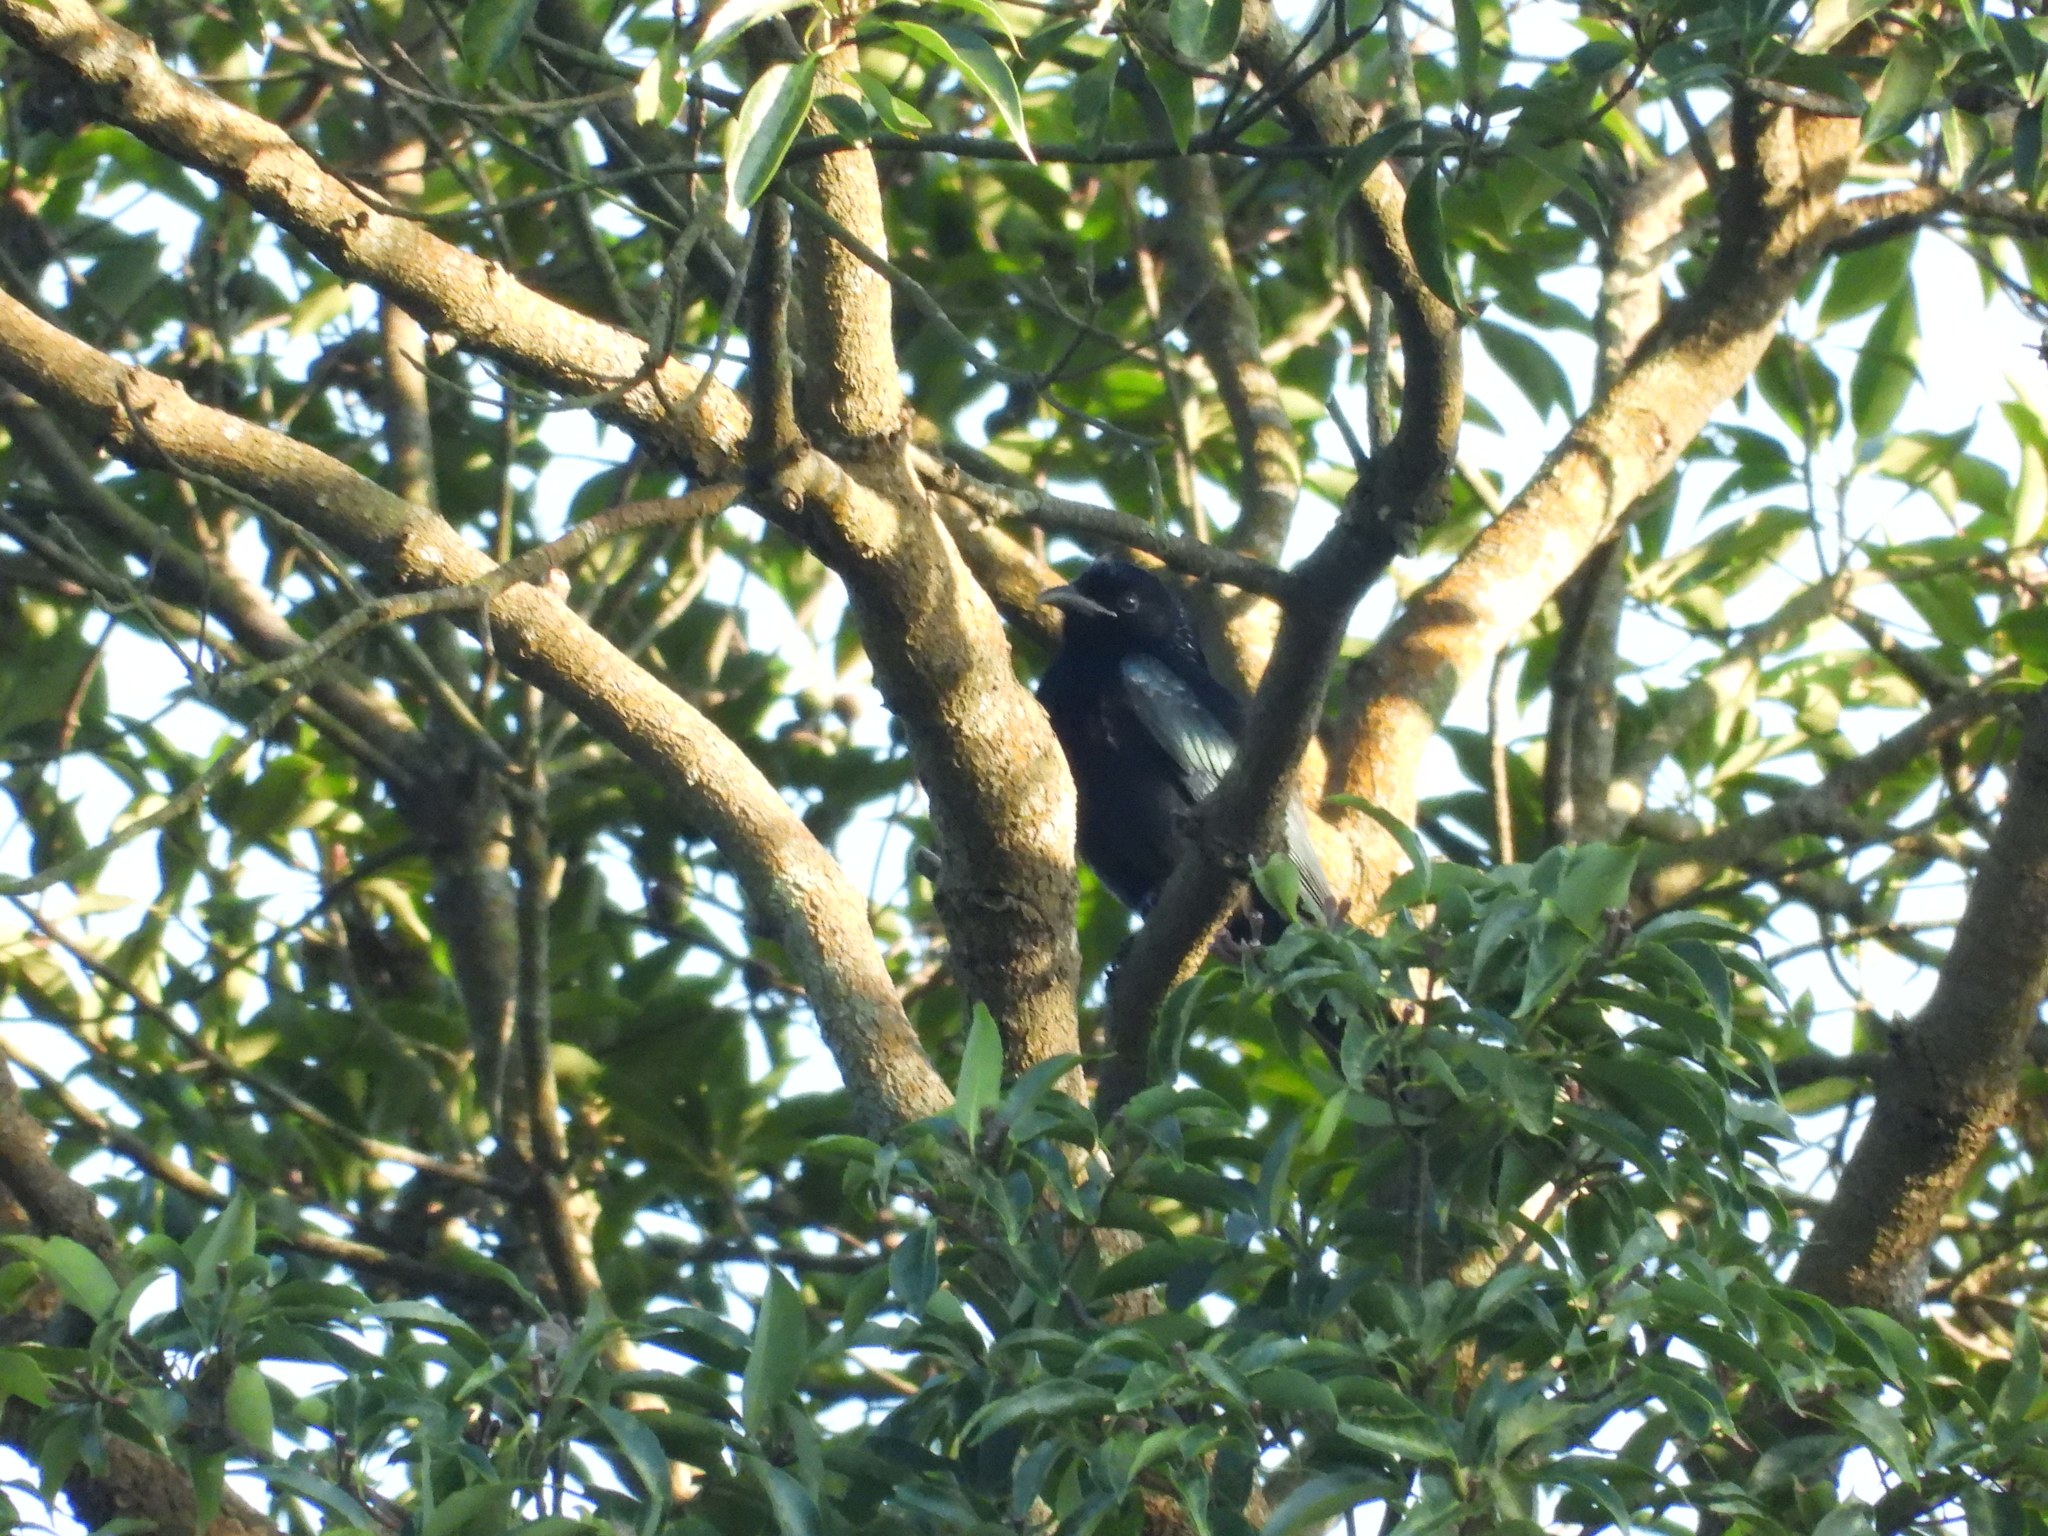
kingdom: Animalia
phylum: Chordata
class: Aves
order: Passeriformes
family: Dicruridae
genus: Dicrurus
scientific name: Dicrurus hottentottus
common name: Hair-crested drongo
